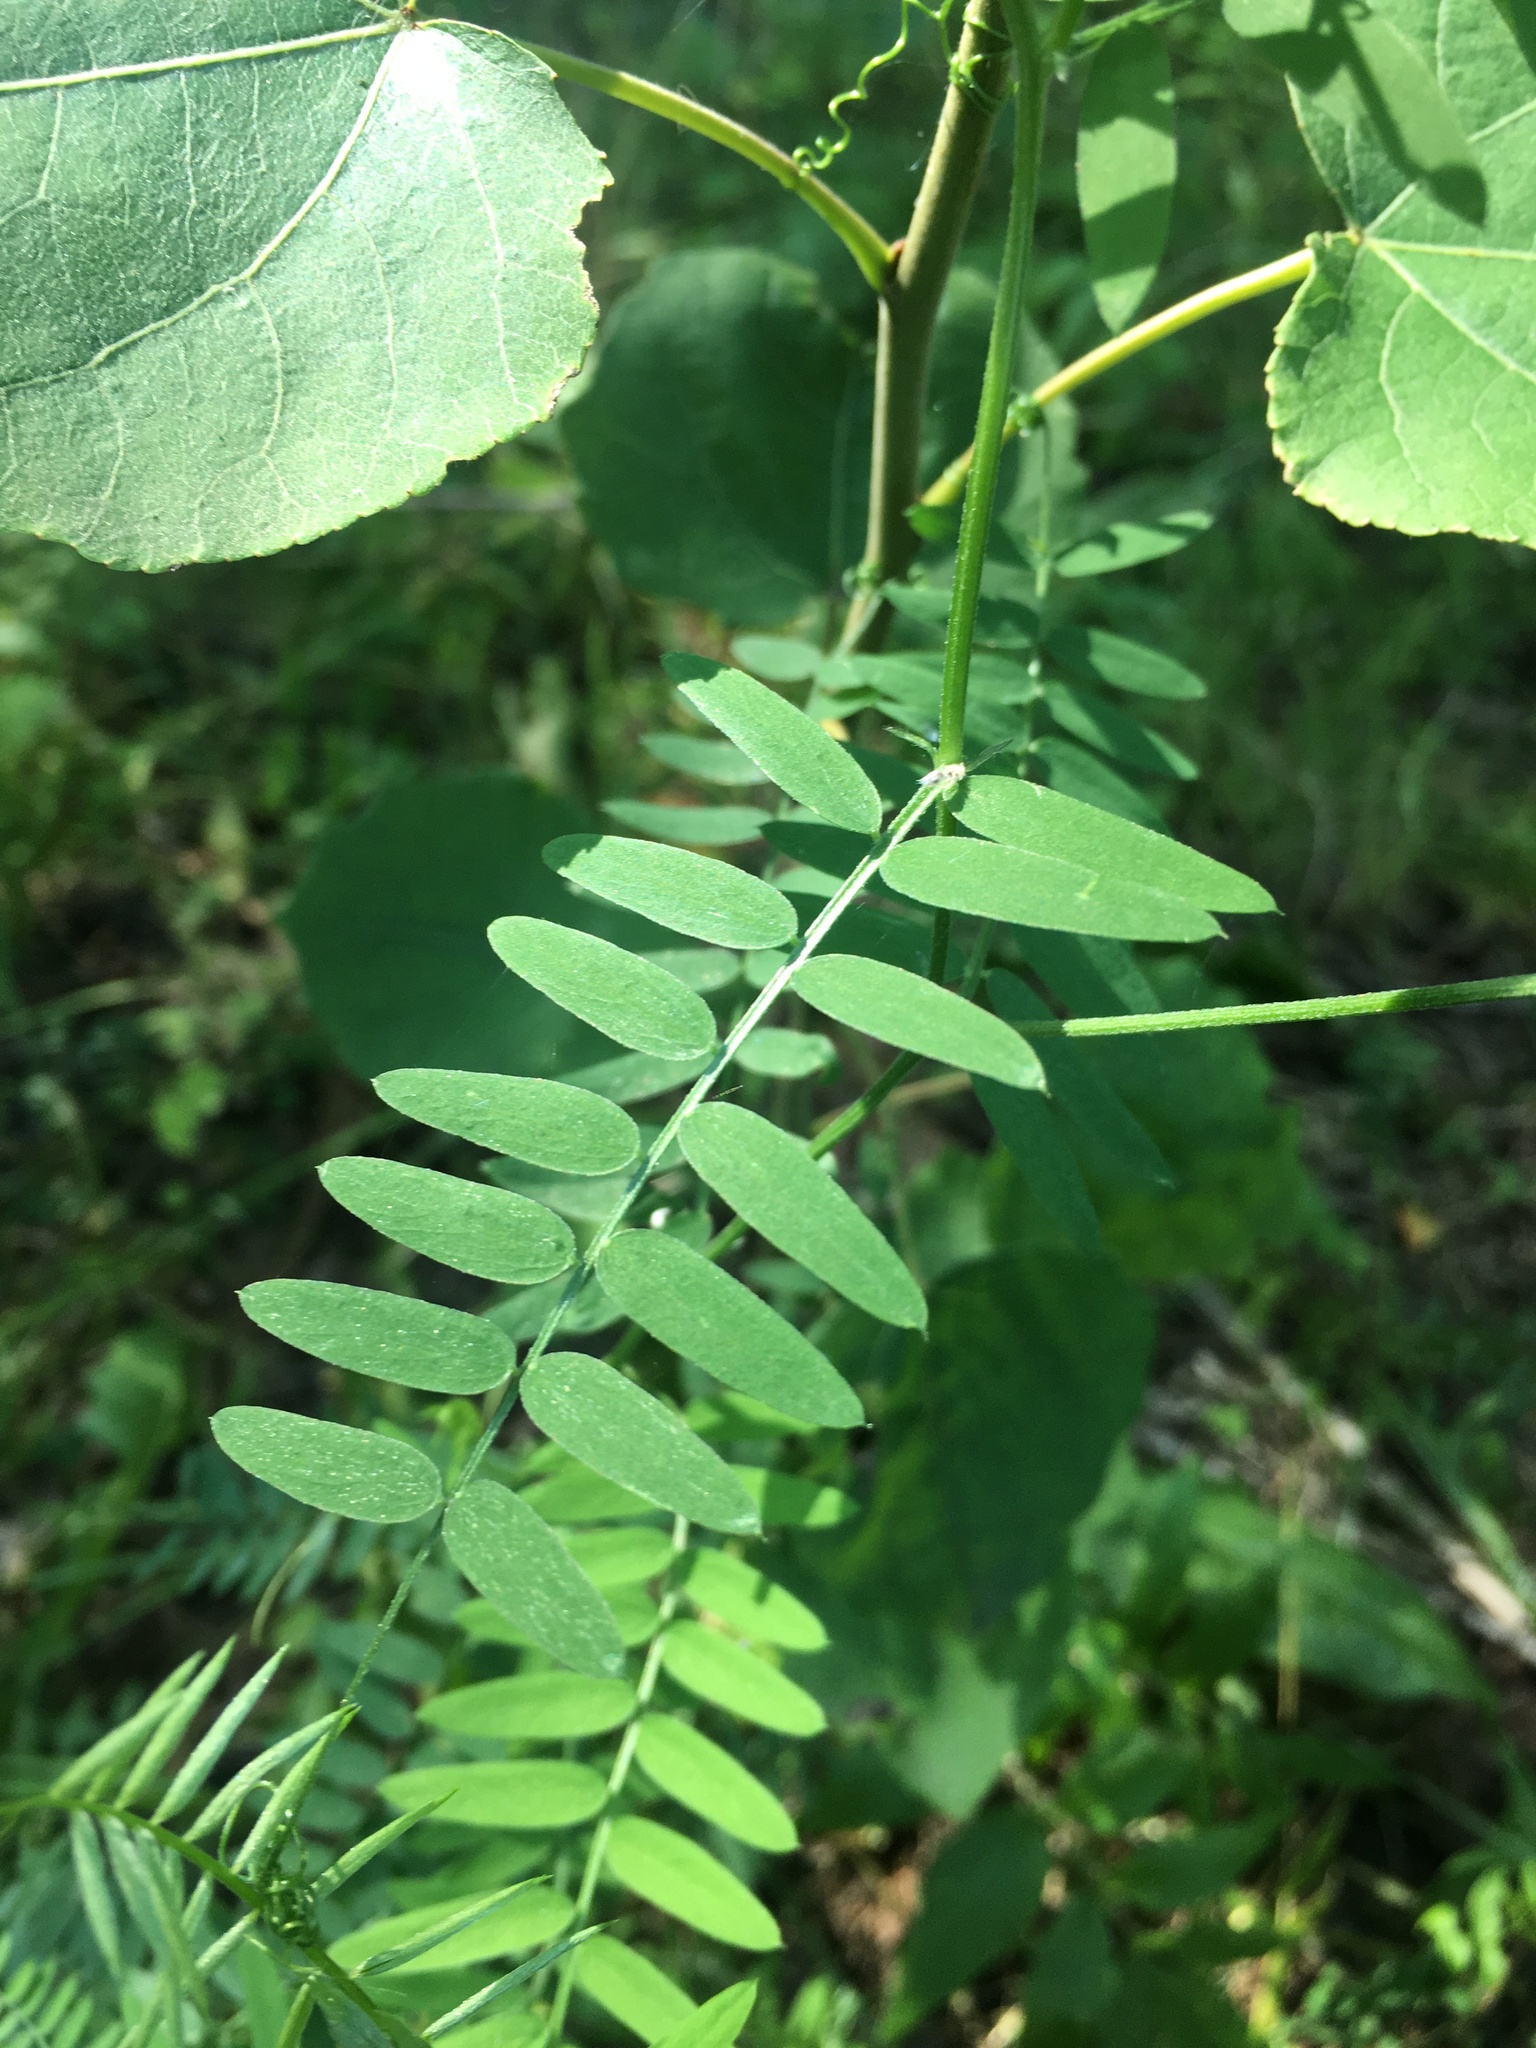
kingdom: Plantae
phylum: Tracheophyta
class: Magnoliopsida
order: Fabales
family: Fabaceae
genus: Vicia
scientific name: Vicia cracca
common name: Bird vetch
